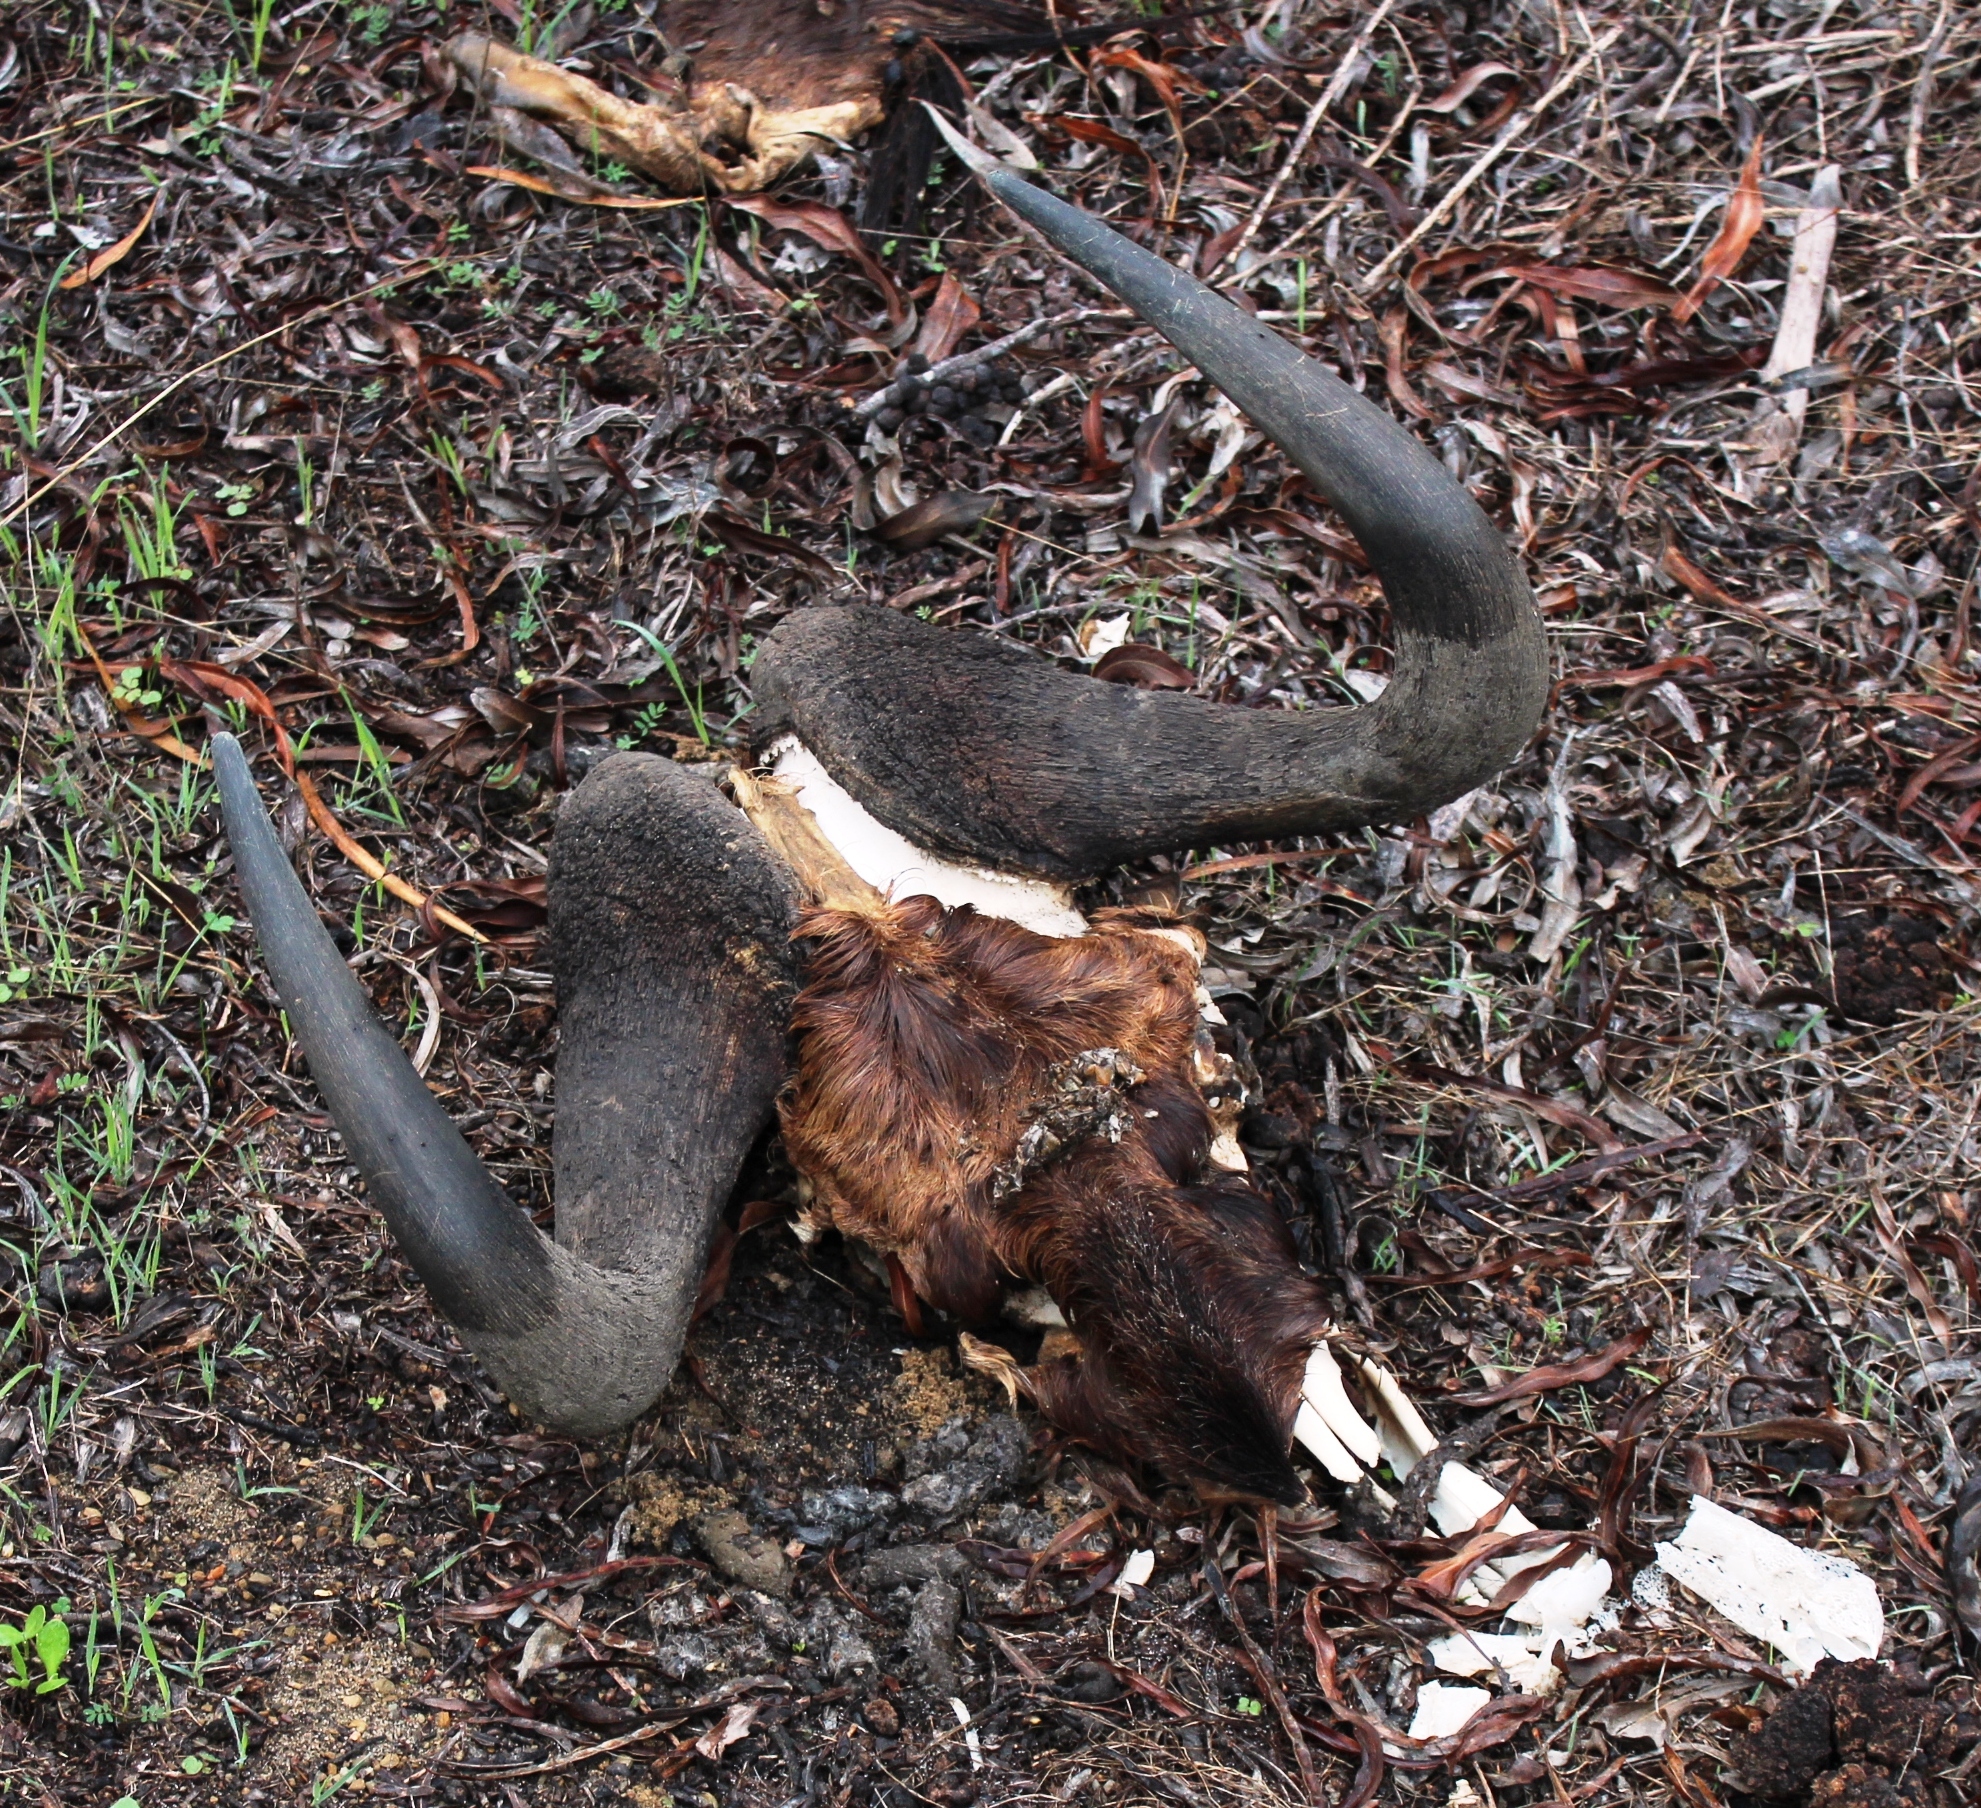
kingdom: Animalia
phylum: Chordata
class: Mammalia
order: Artiodactyla
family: Bovidae
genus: Connochaetes
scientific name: Connochaetes gnou
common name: Black wildebeest
